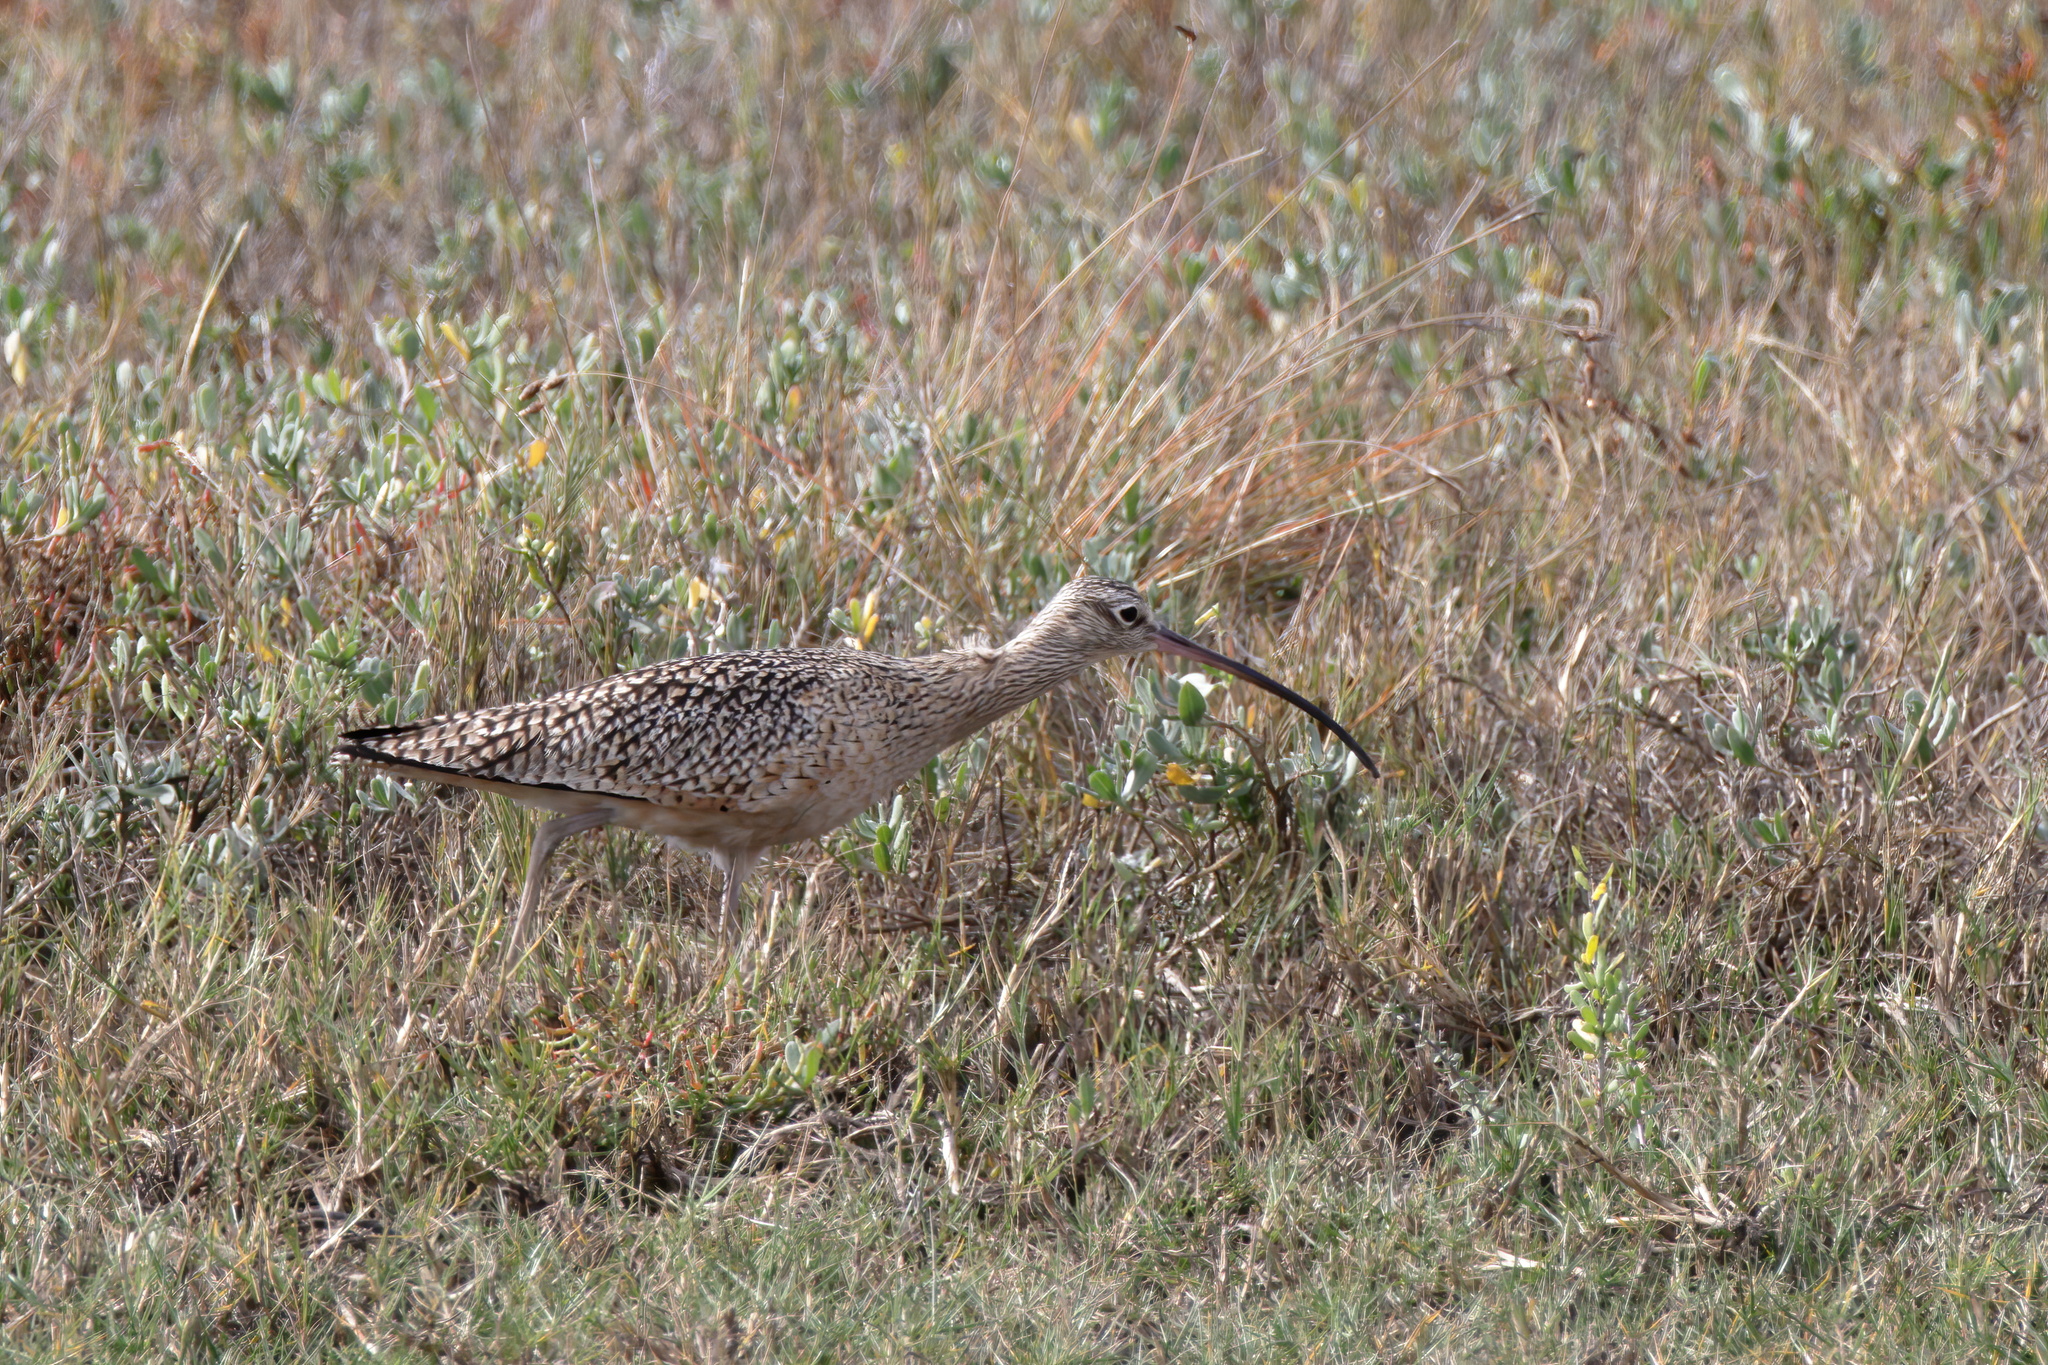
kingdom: Animalia
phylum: Chordata
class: Aves
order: Charadriiformes
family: Scolopacidae
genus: Numenius
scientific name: Numenius americanus
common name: Long-billed curlew
